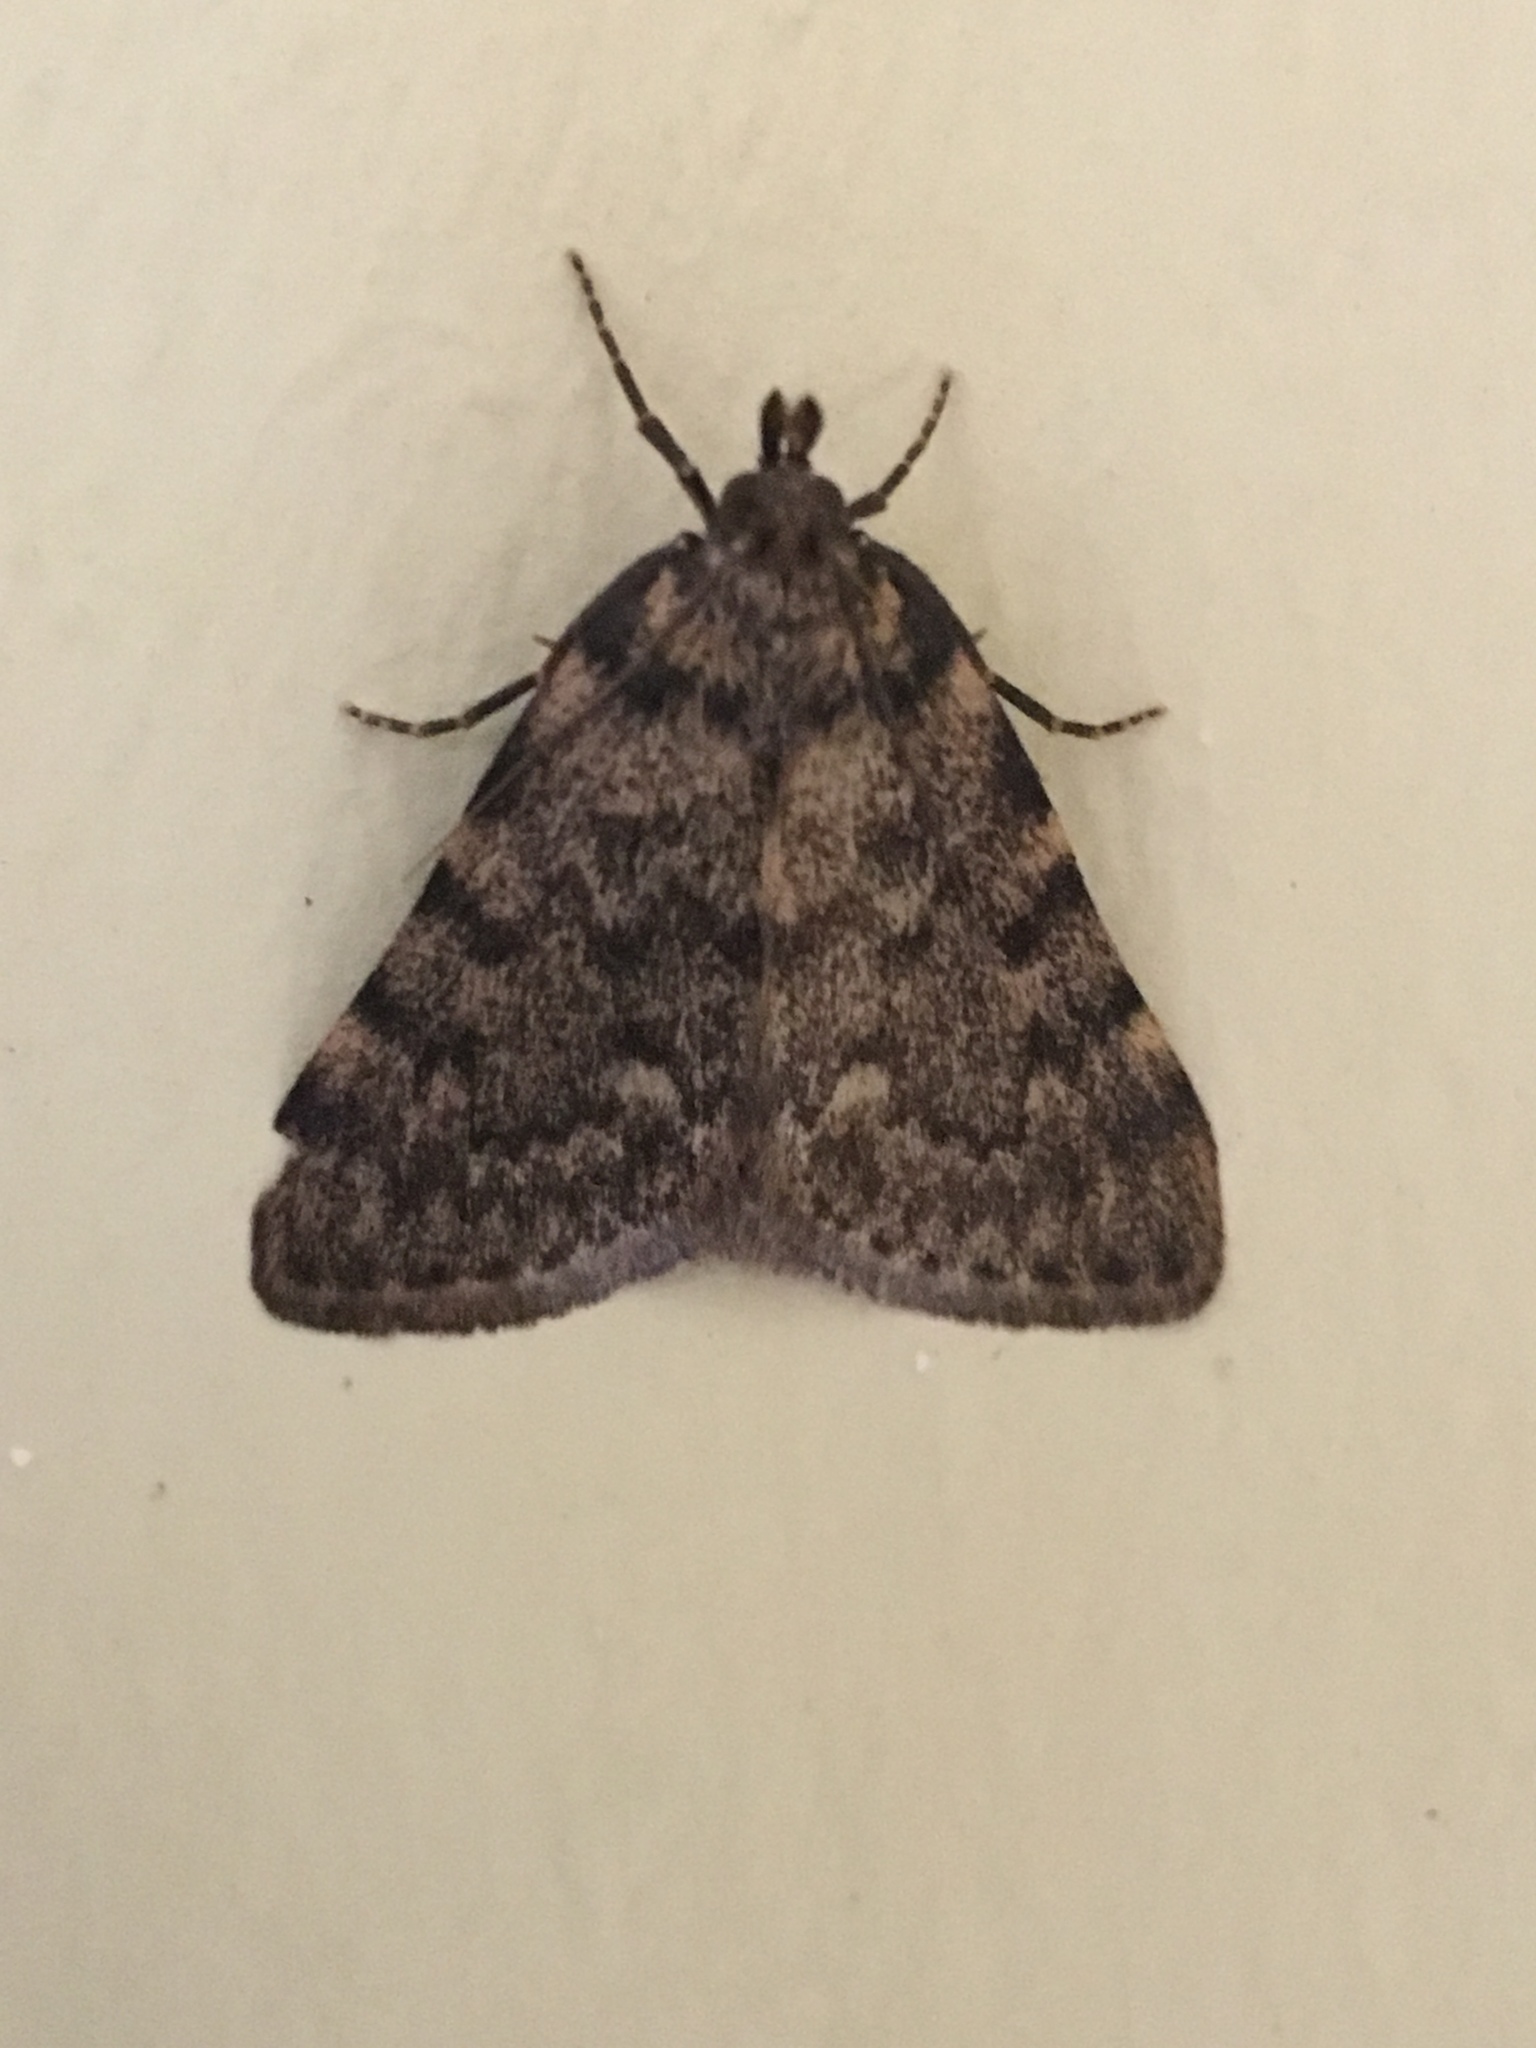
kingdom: Animalia
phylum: Arthropoda
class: Insecta
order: Lepidoptera
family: Pyralidae
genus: Aglossa
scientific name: Aglossa pinguinalis
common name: Large tabby
